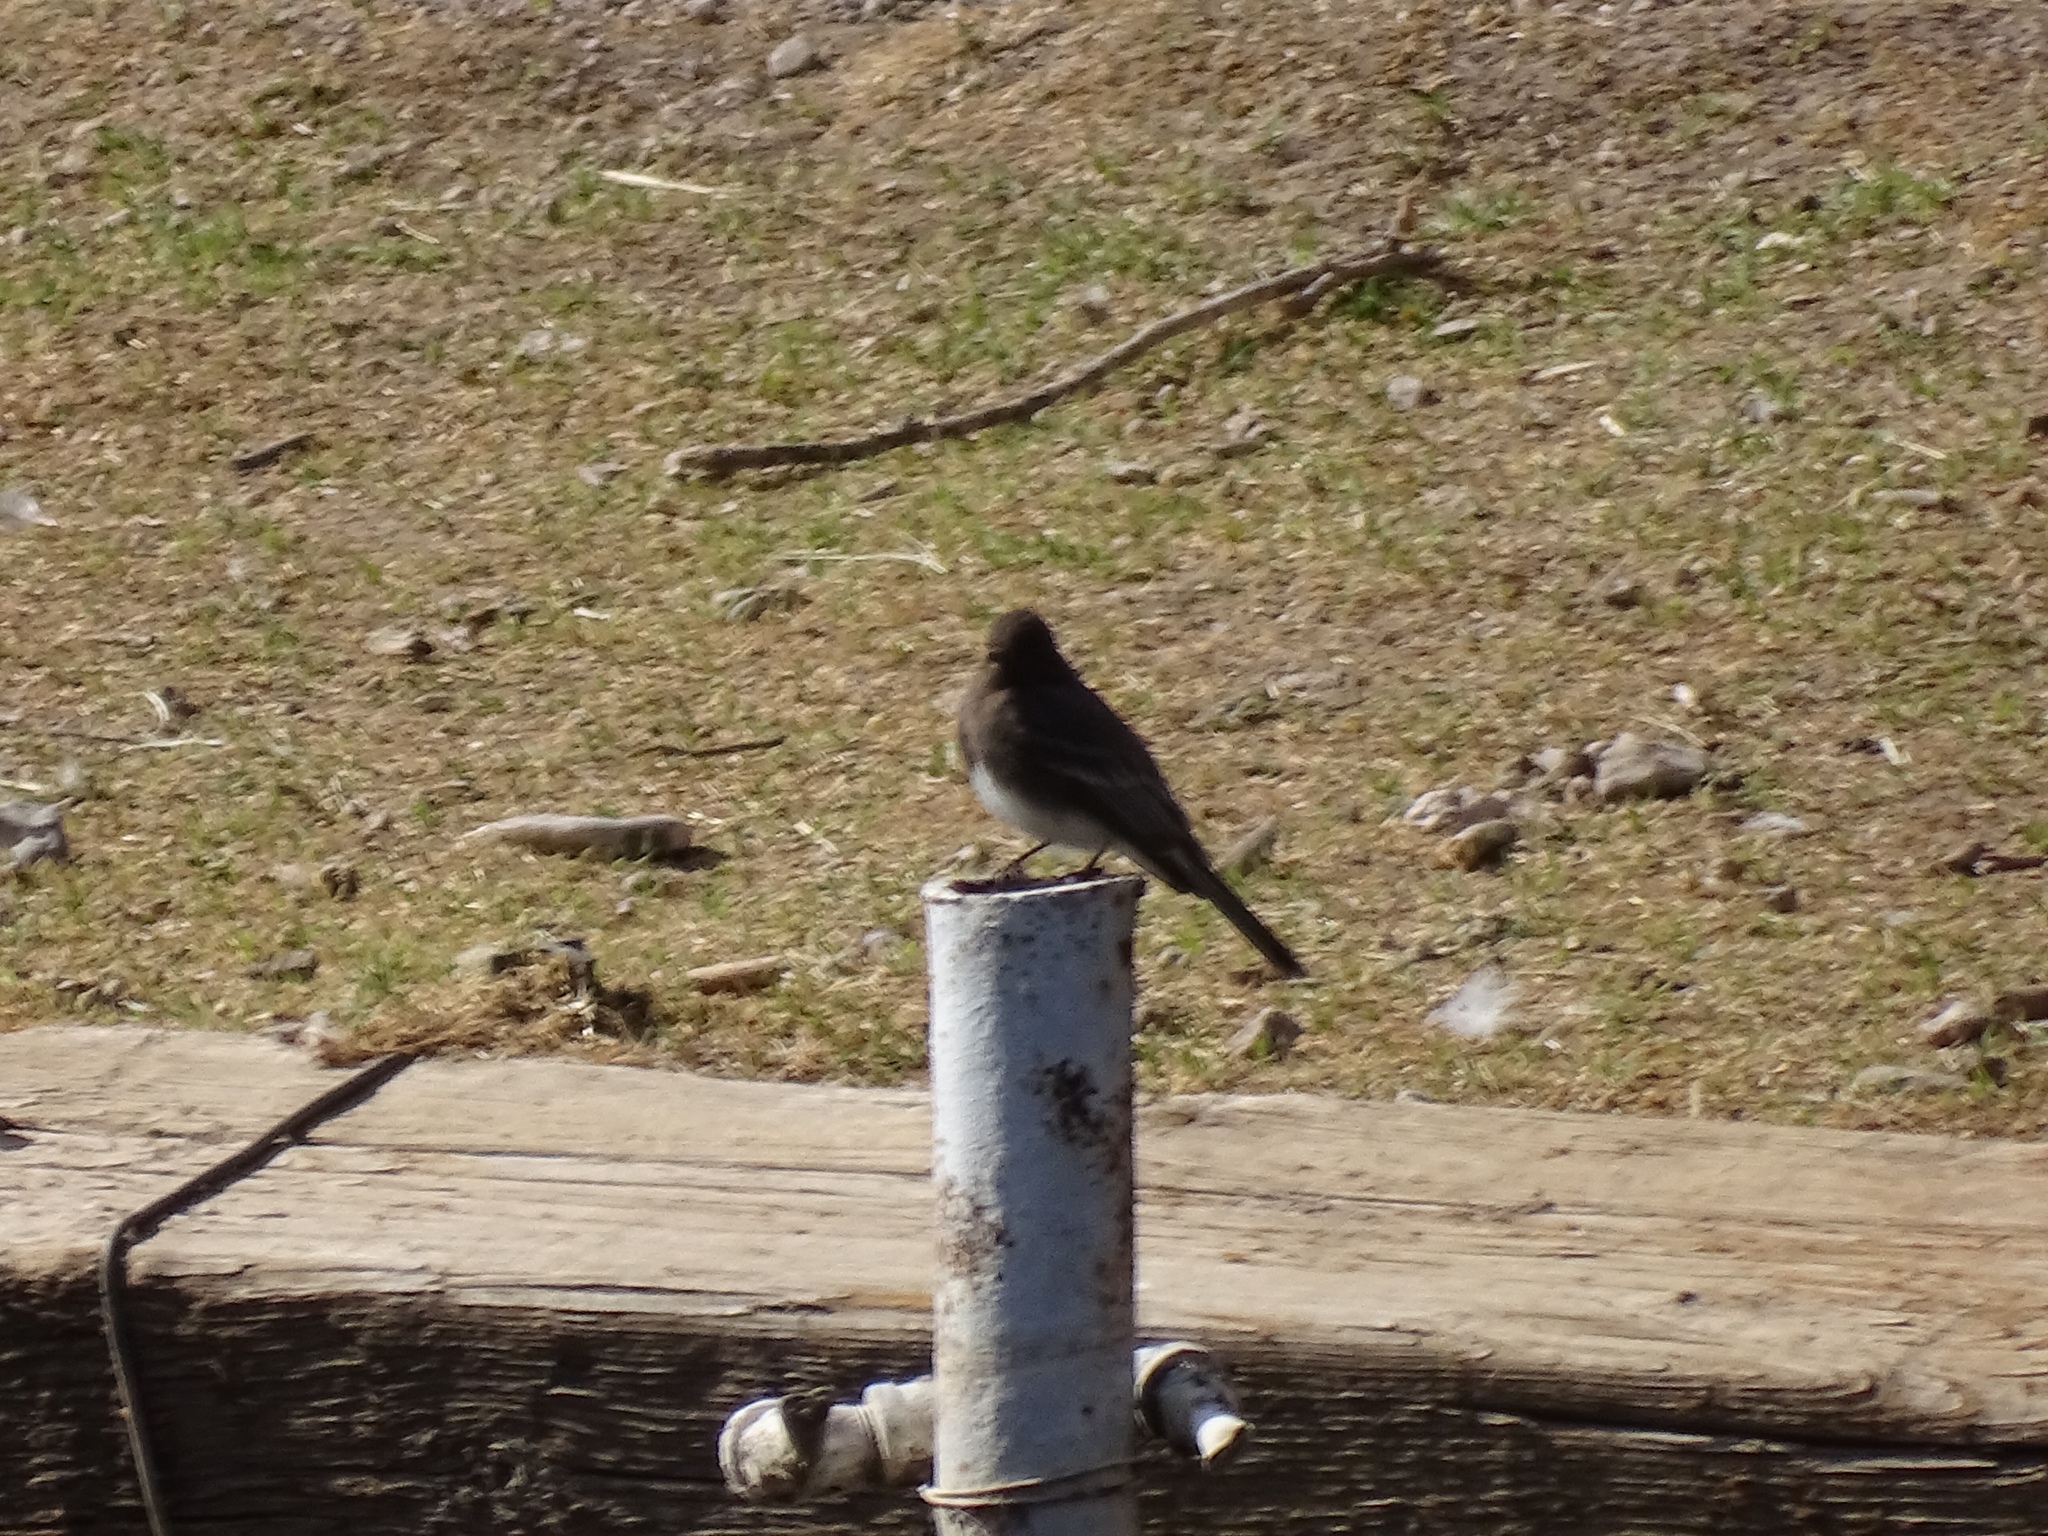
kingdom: Animalia
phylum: Chordata
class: Aves
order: Passeriformes
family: Tyrannidae
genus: Sayornis
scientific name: Sayornis nigricans
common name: Black phoebe
